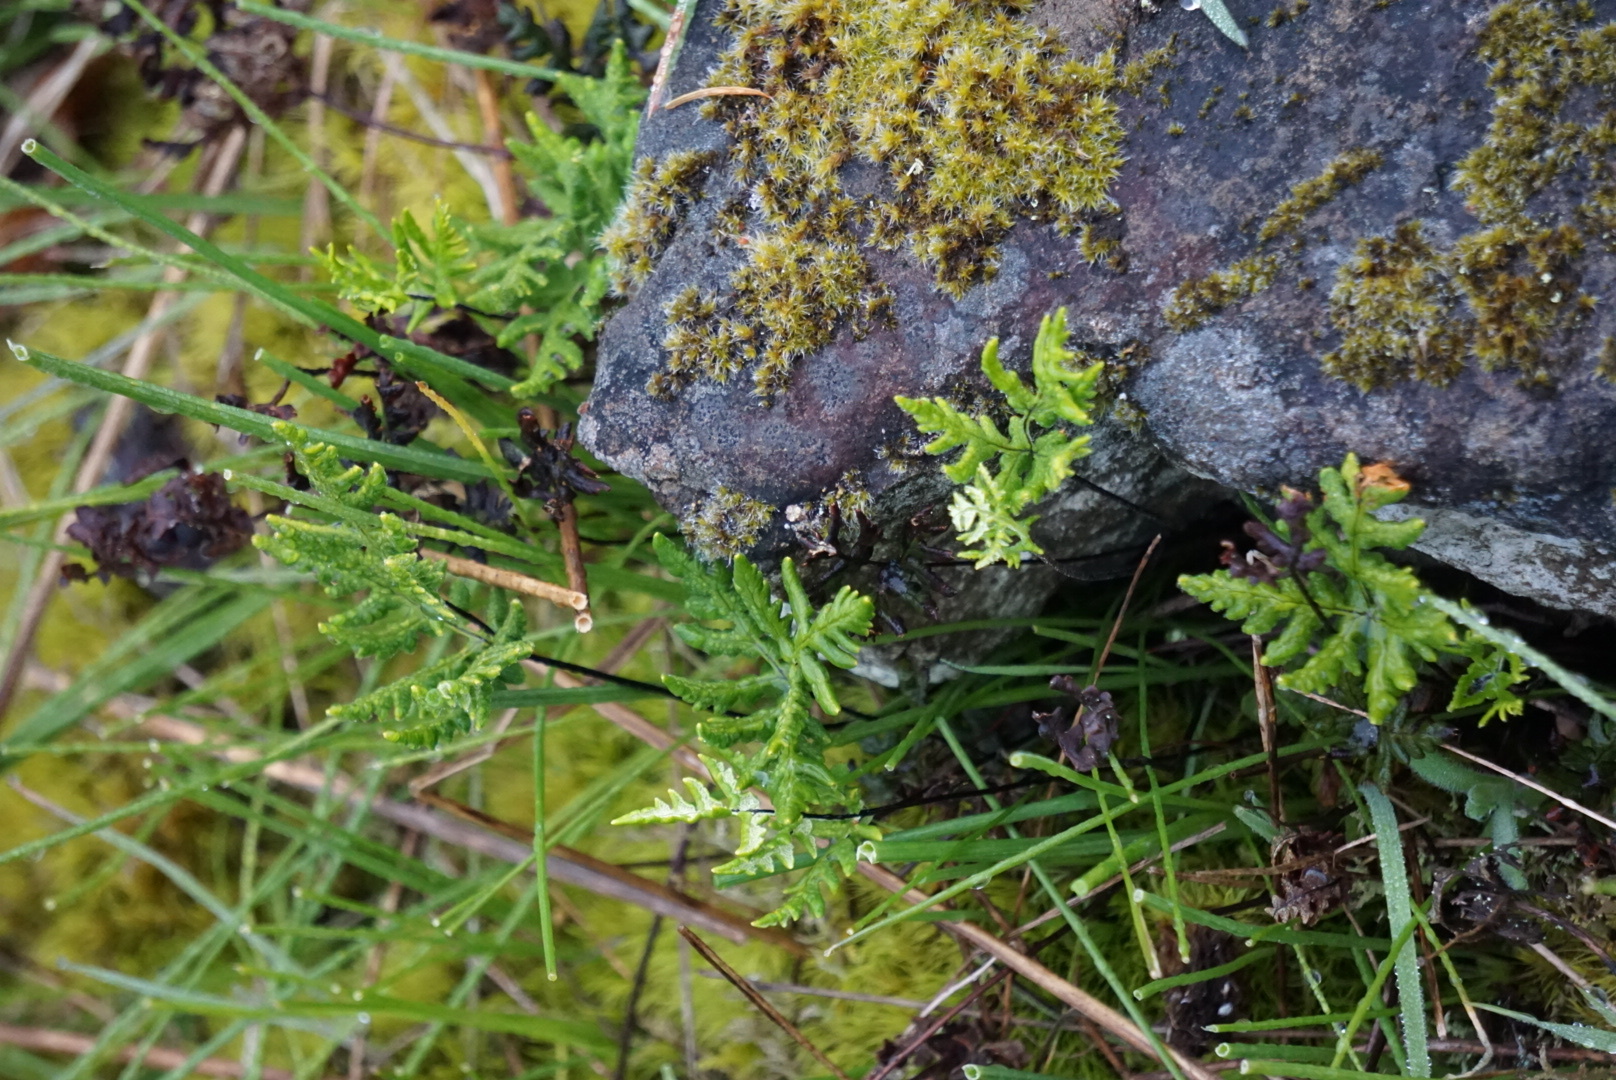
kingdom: Plantae
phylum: Tracheophyta
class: Polypodiopsida
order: Polypodiales
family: Pteridaceae
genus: Pentagramma
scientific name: Pentagramma triangularis
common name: Gold fern
